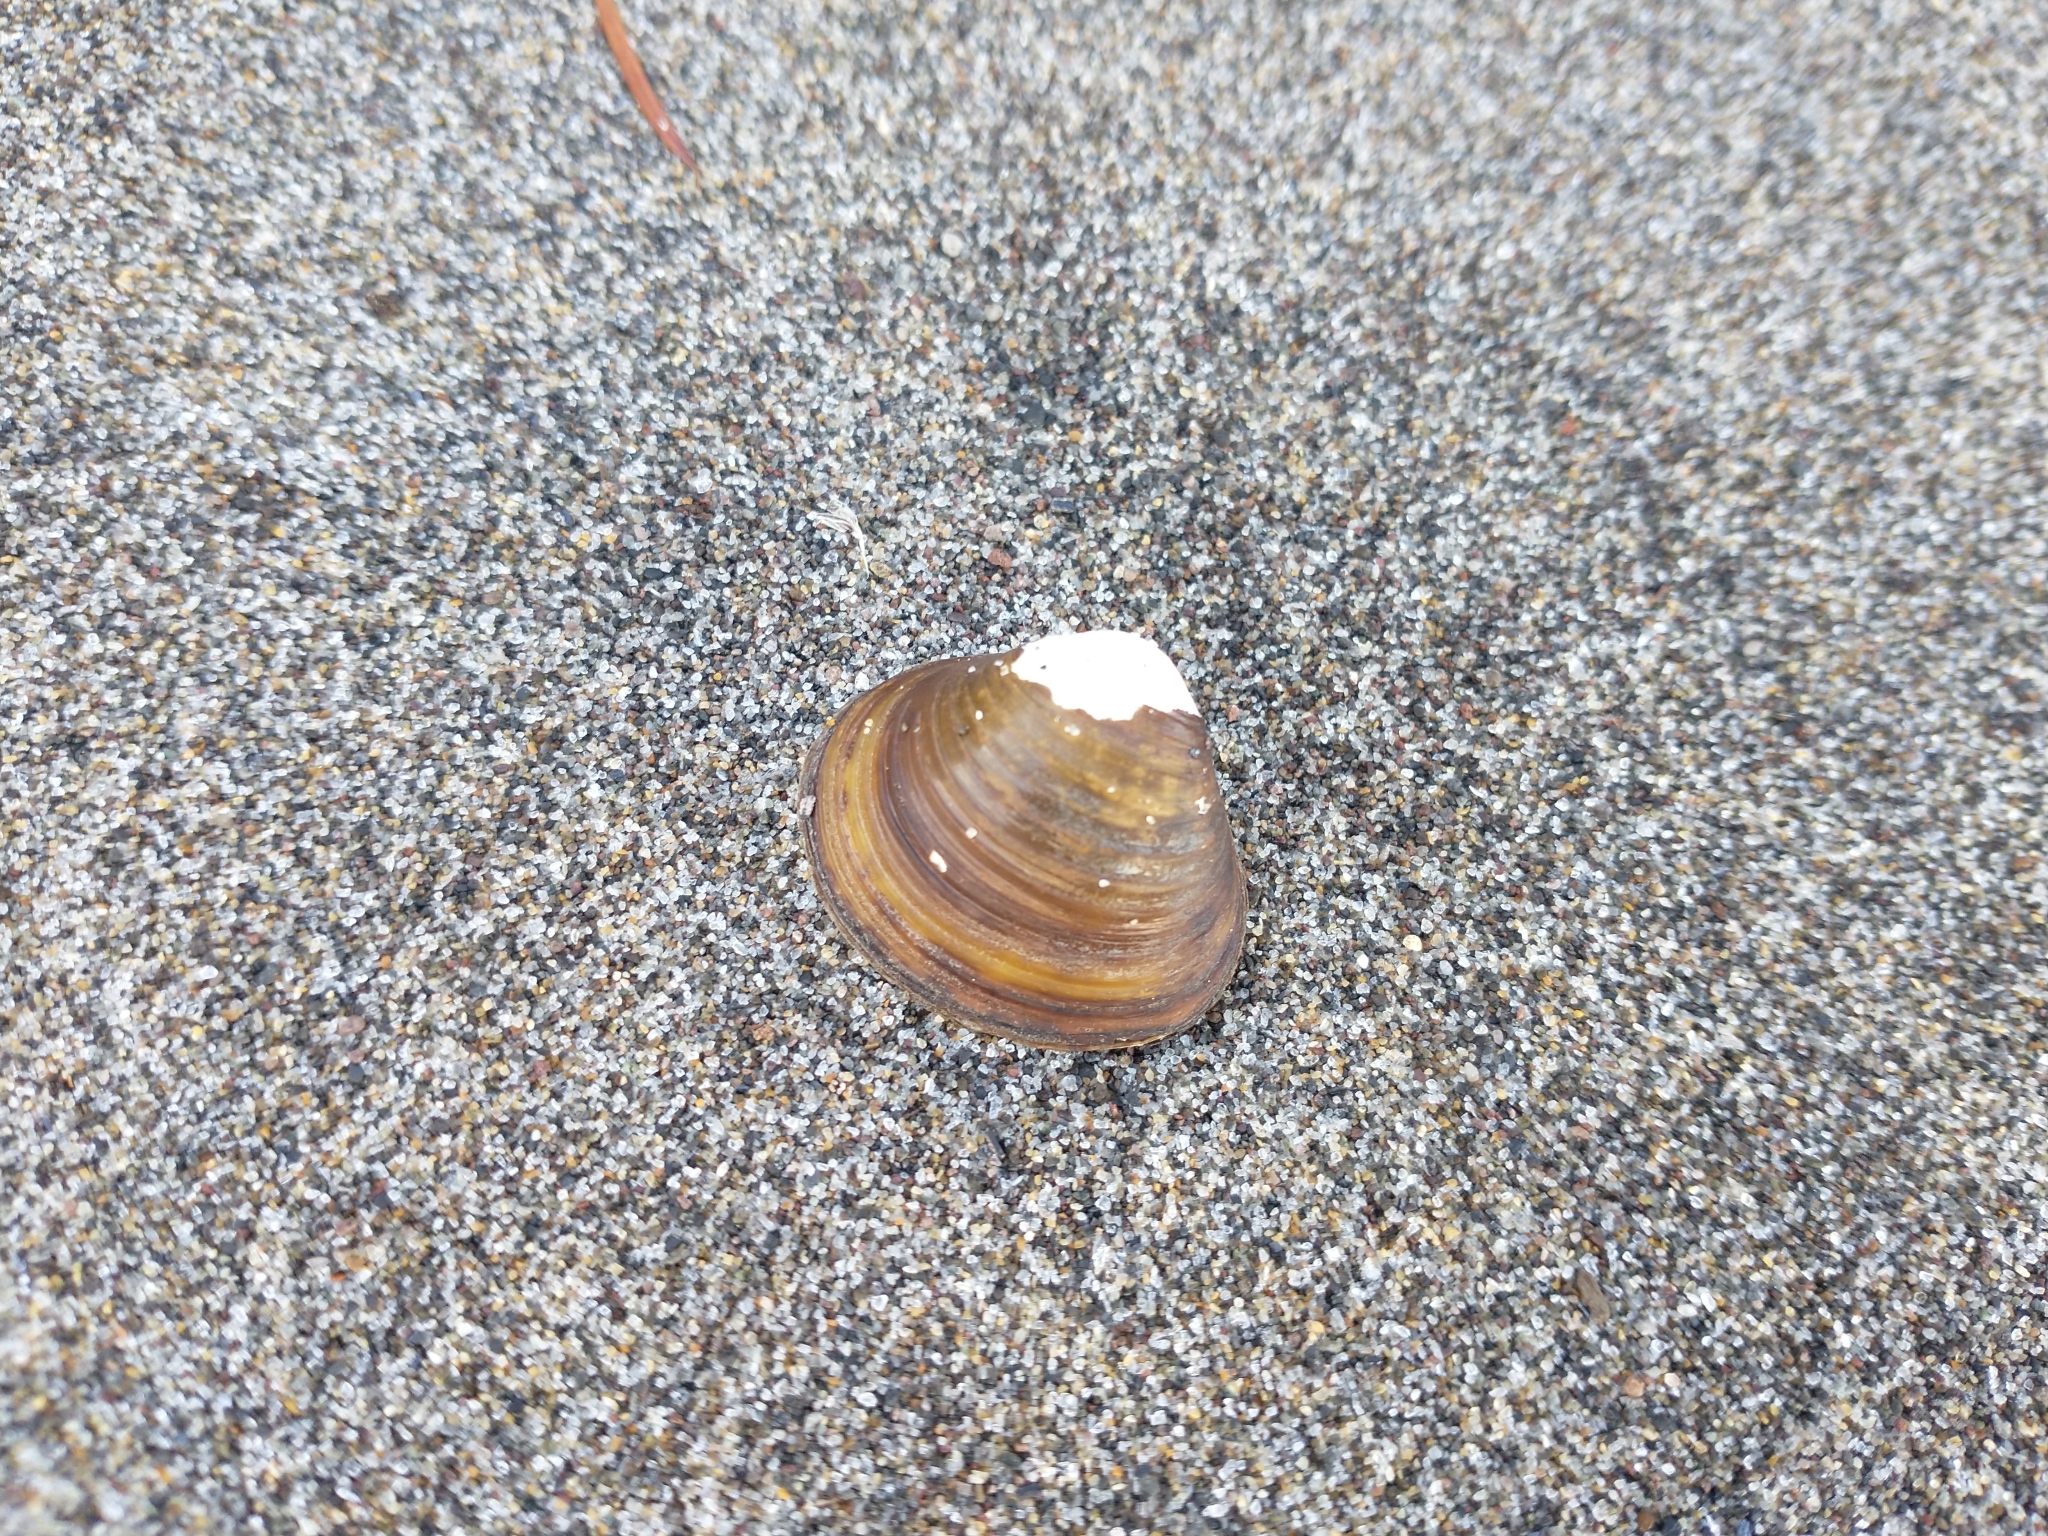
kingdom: Animalia
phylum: Mollusca
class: Bivalvia
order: Venerida
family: Cyrenidae
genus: Corbicula
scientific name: Corbicula fluminea
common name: Asian clam
